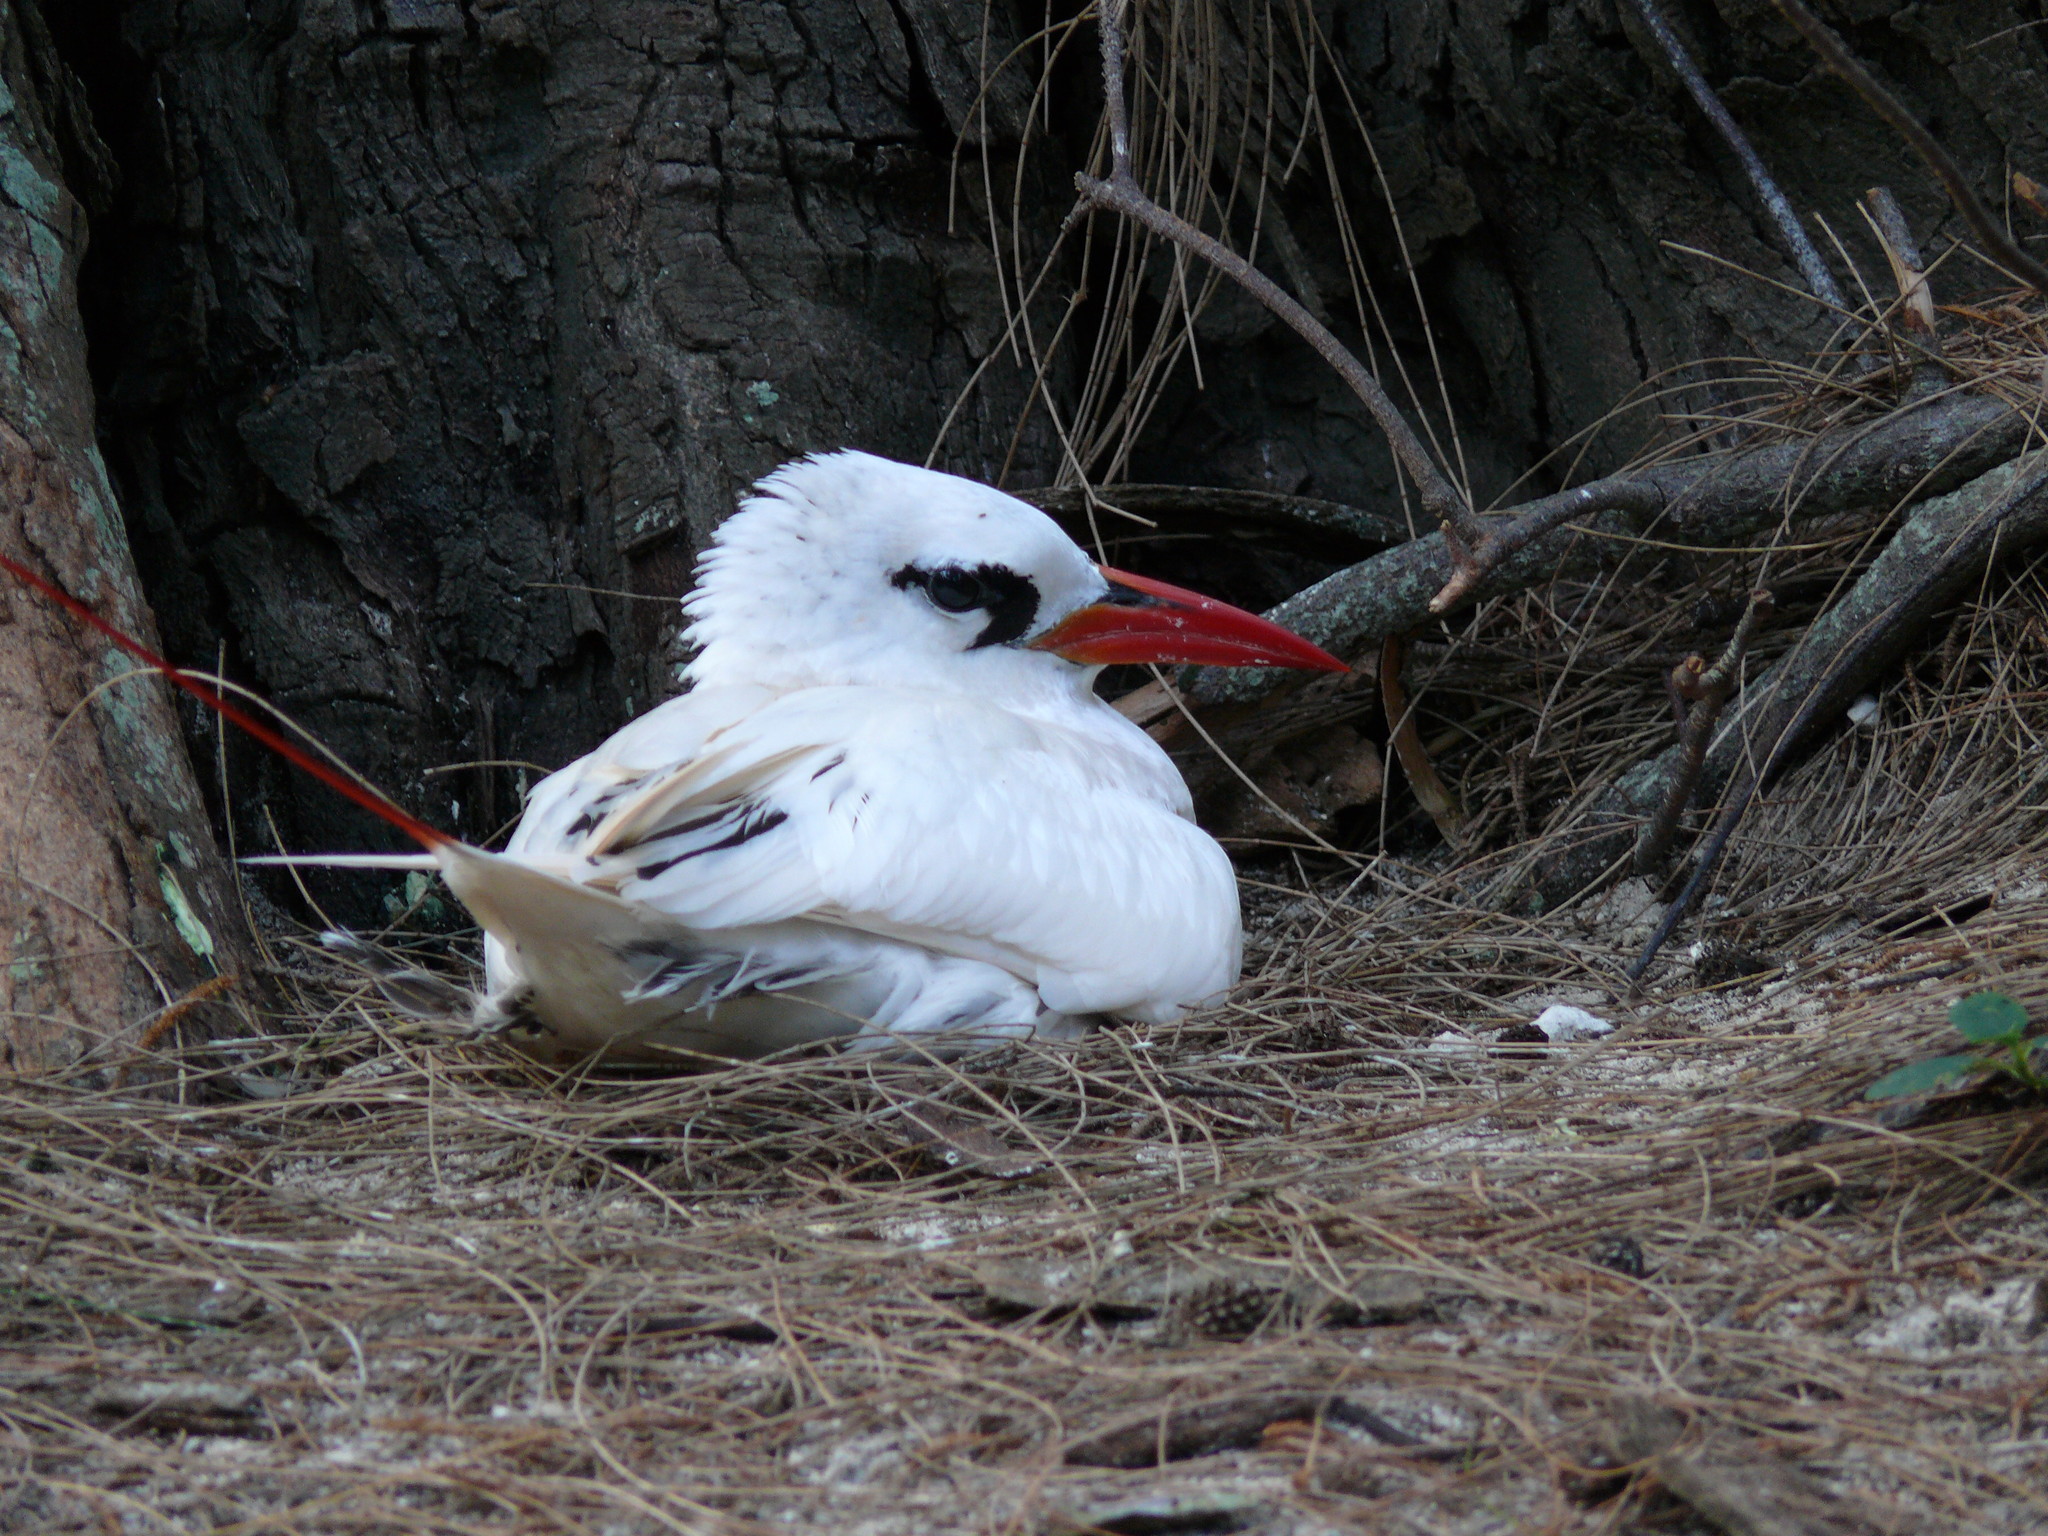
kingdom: Animalia
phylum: Chordata
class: Aves
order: Phaethontiformes
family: Phaethontidae
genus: Phaethon
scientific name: Phaethon rubricauda
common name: Red-tailed tropicbird
